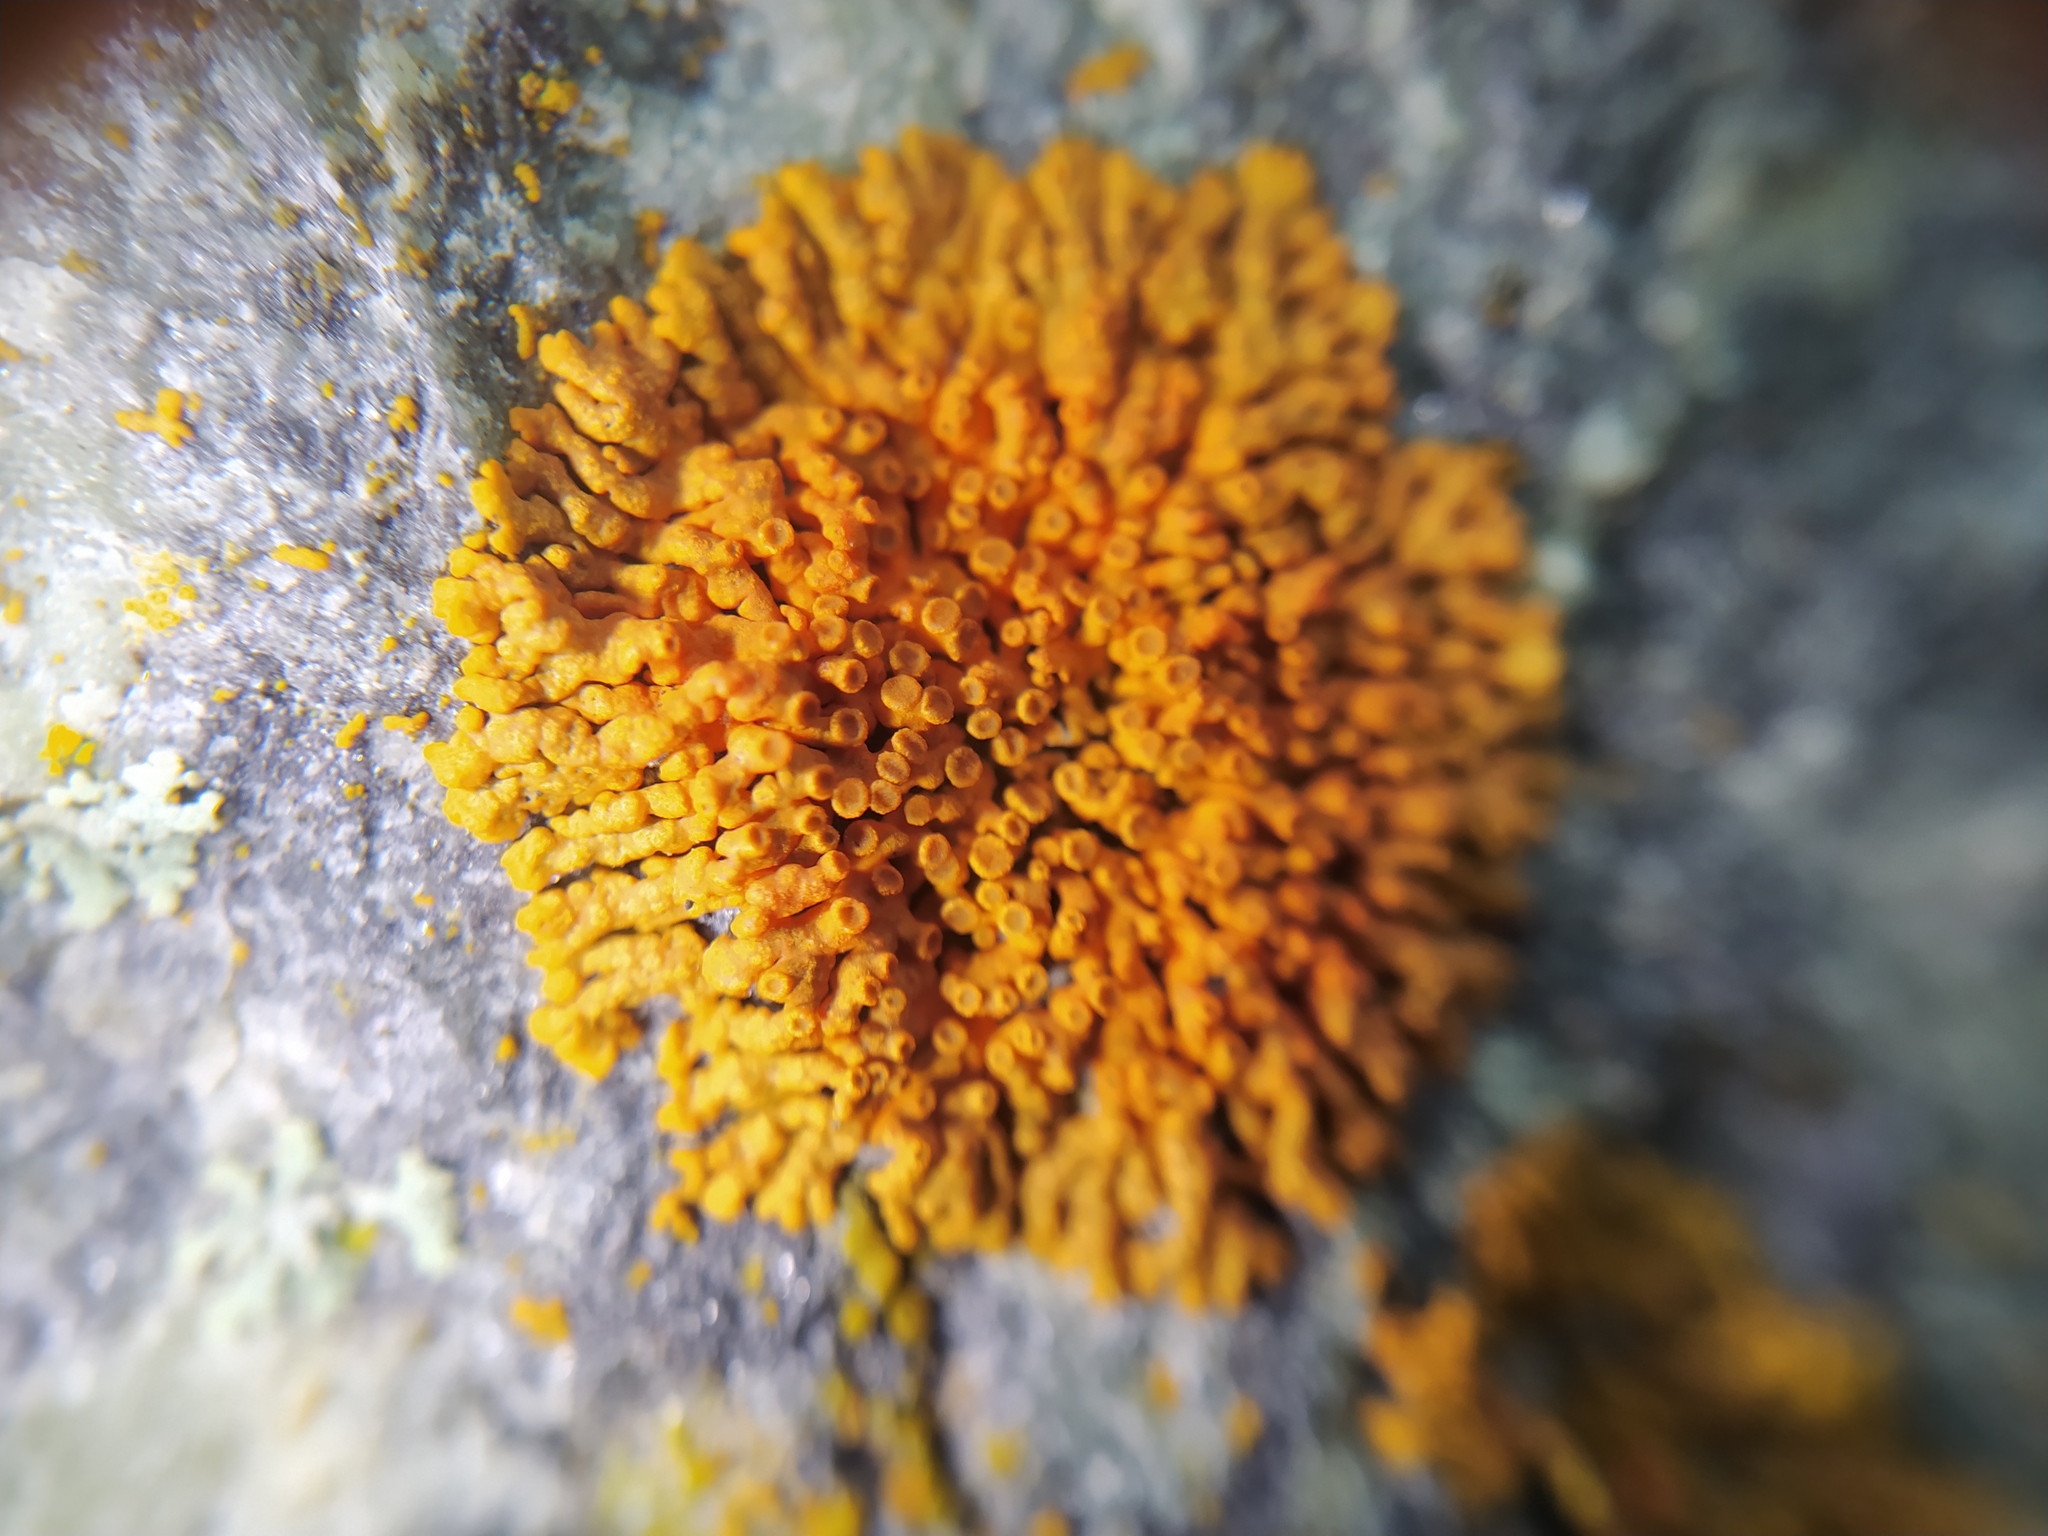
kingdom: Fungi
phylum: Ascomycota
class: Lecanoromycetes
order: Teloschistales
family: Teloschistaceae
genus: Xanthoria
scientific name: Xanthoria elegans
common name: Elegant sunburst lichen
